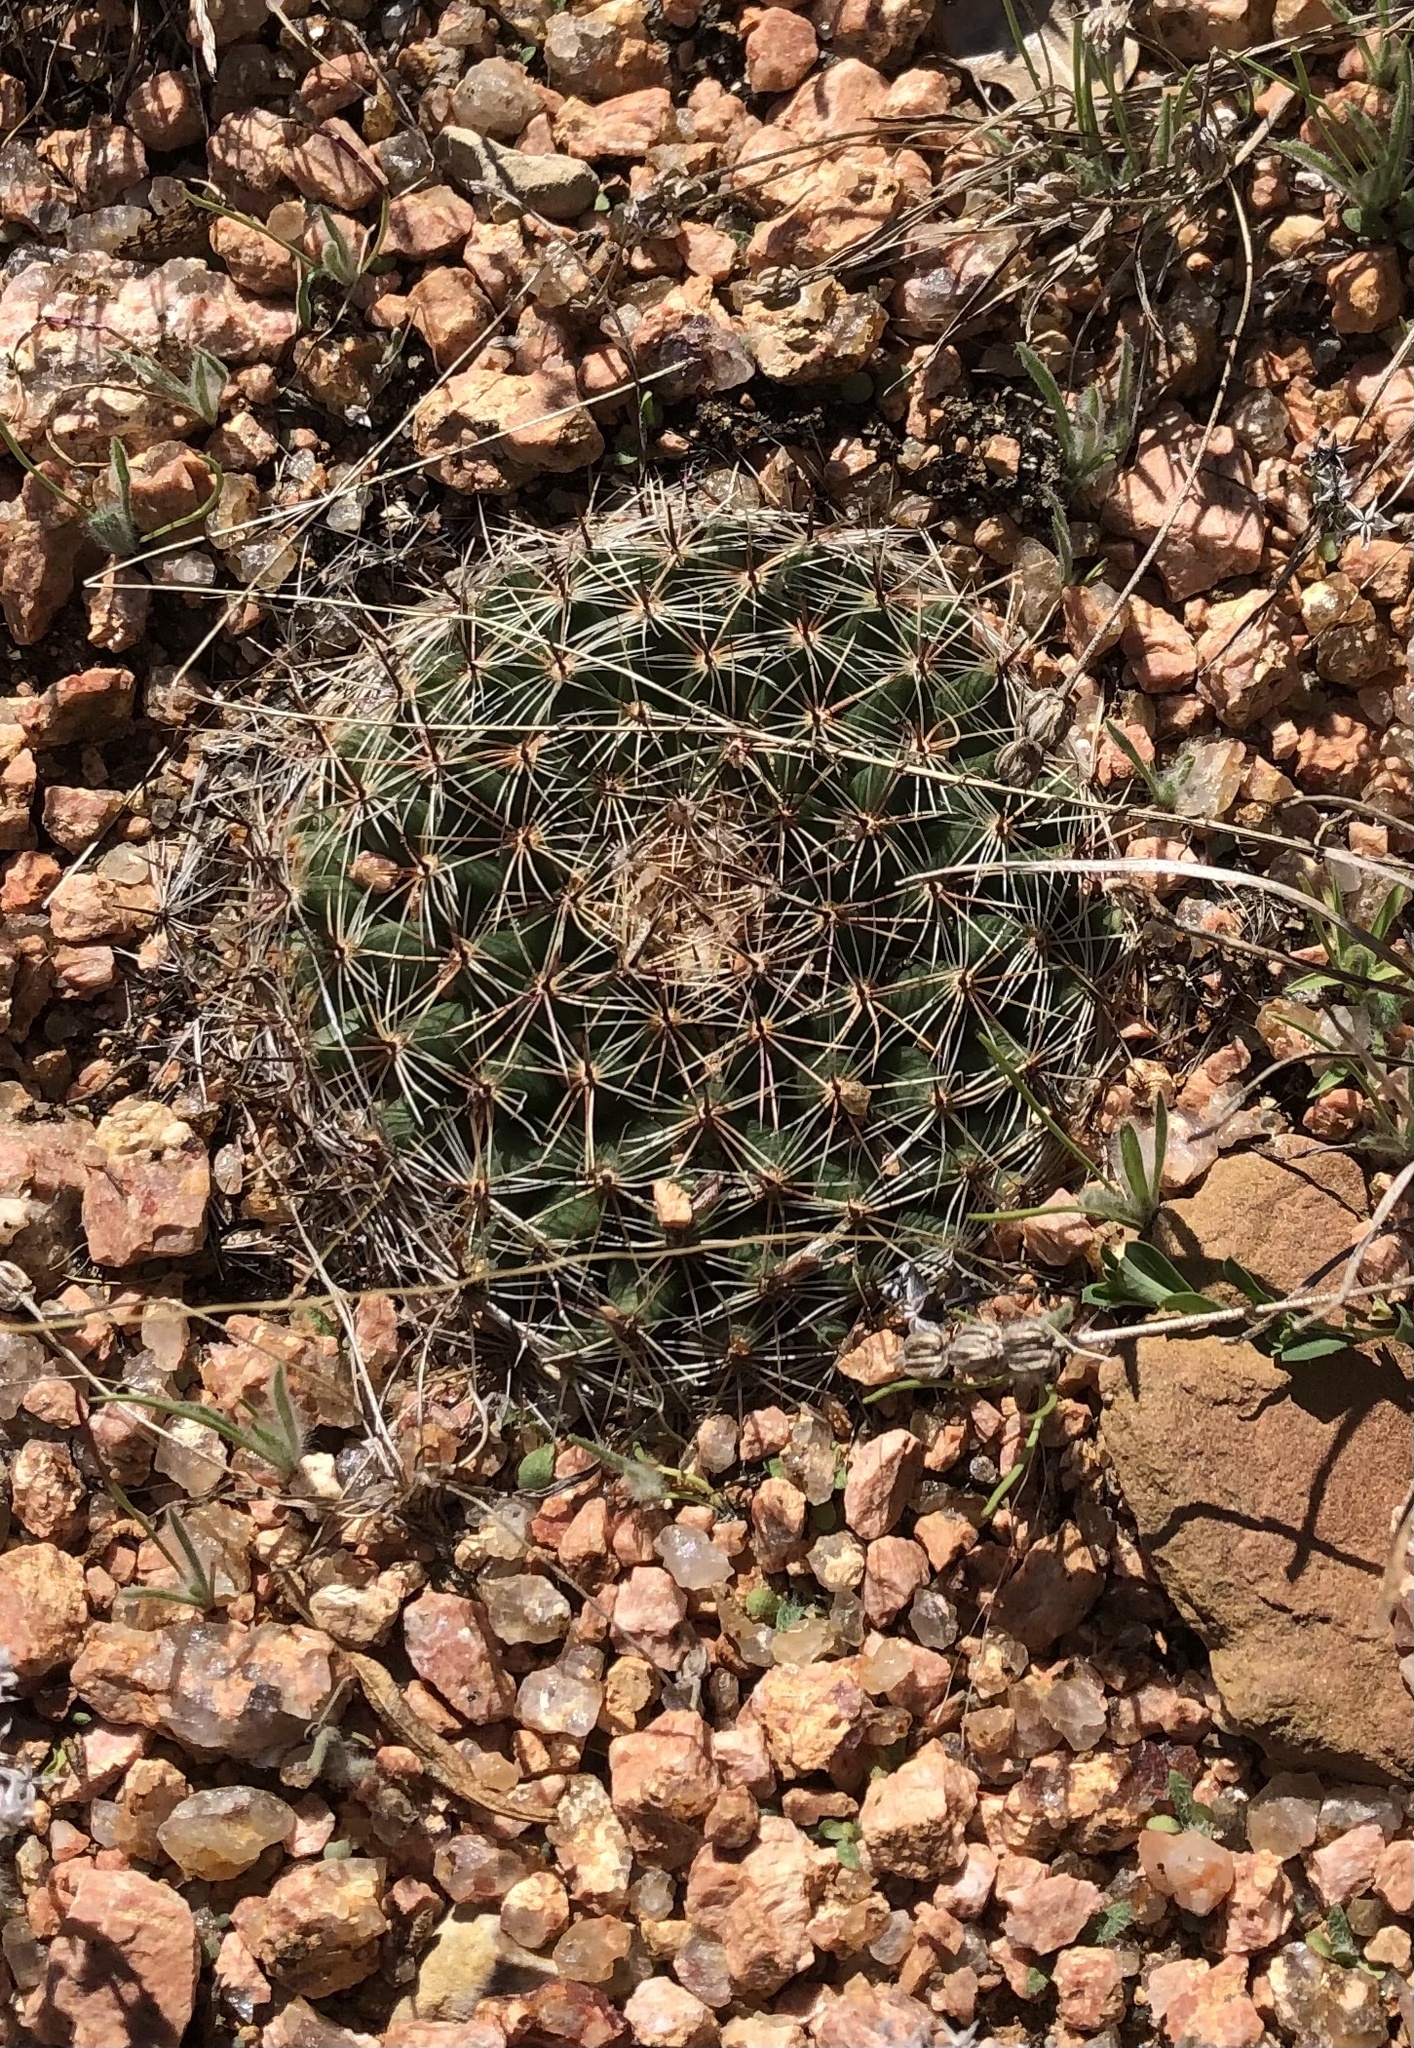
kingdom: Plantae
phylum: Tracheophyta
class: Magnoliopsida
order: Caryophyllales
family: Cactaceae
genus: Mammillaria
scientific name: Mammillaria heyderi
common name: Little nipple cactus
